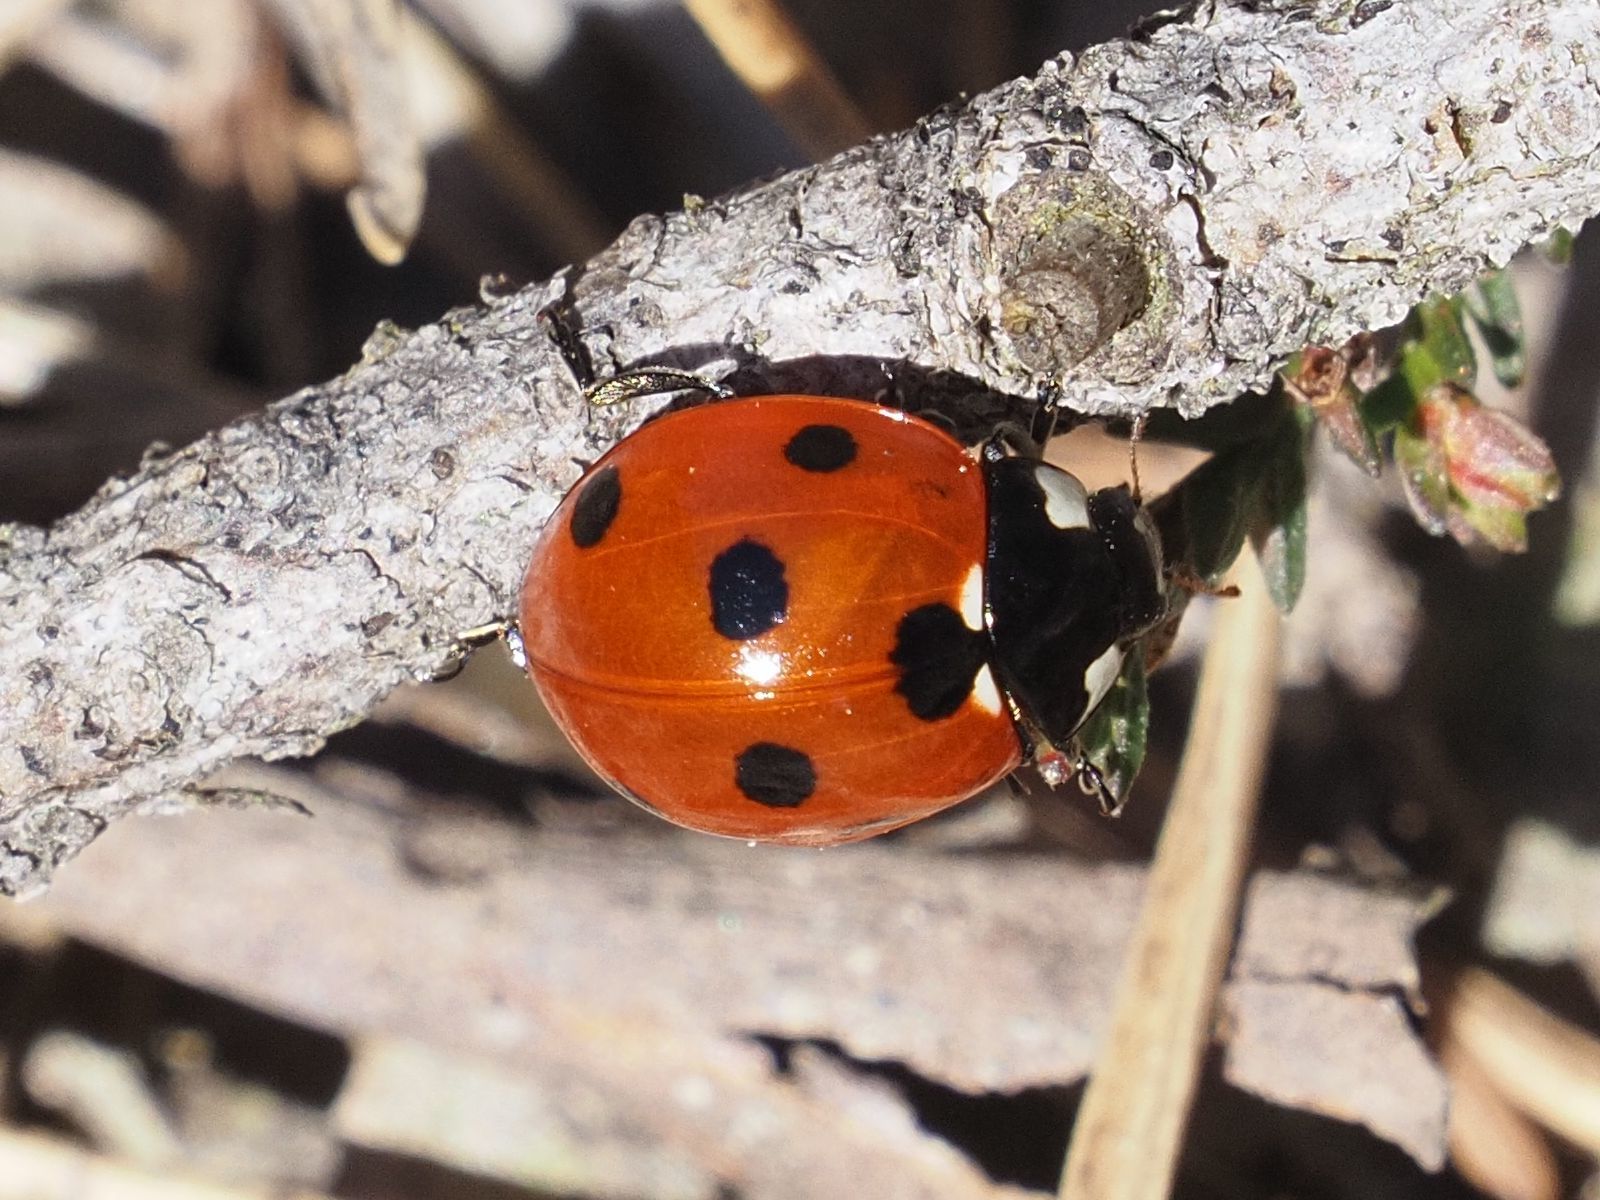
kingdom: Animalia
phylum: Arthropoda
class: Insecta
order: Coleoptera
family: Coccinellidae
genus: Coccinella
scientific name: Coccinella septempunctata
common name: Sevenspotted lady beetle
